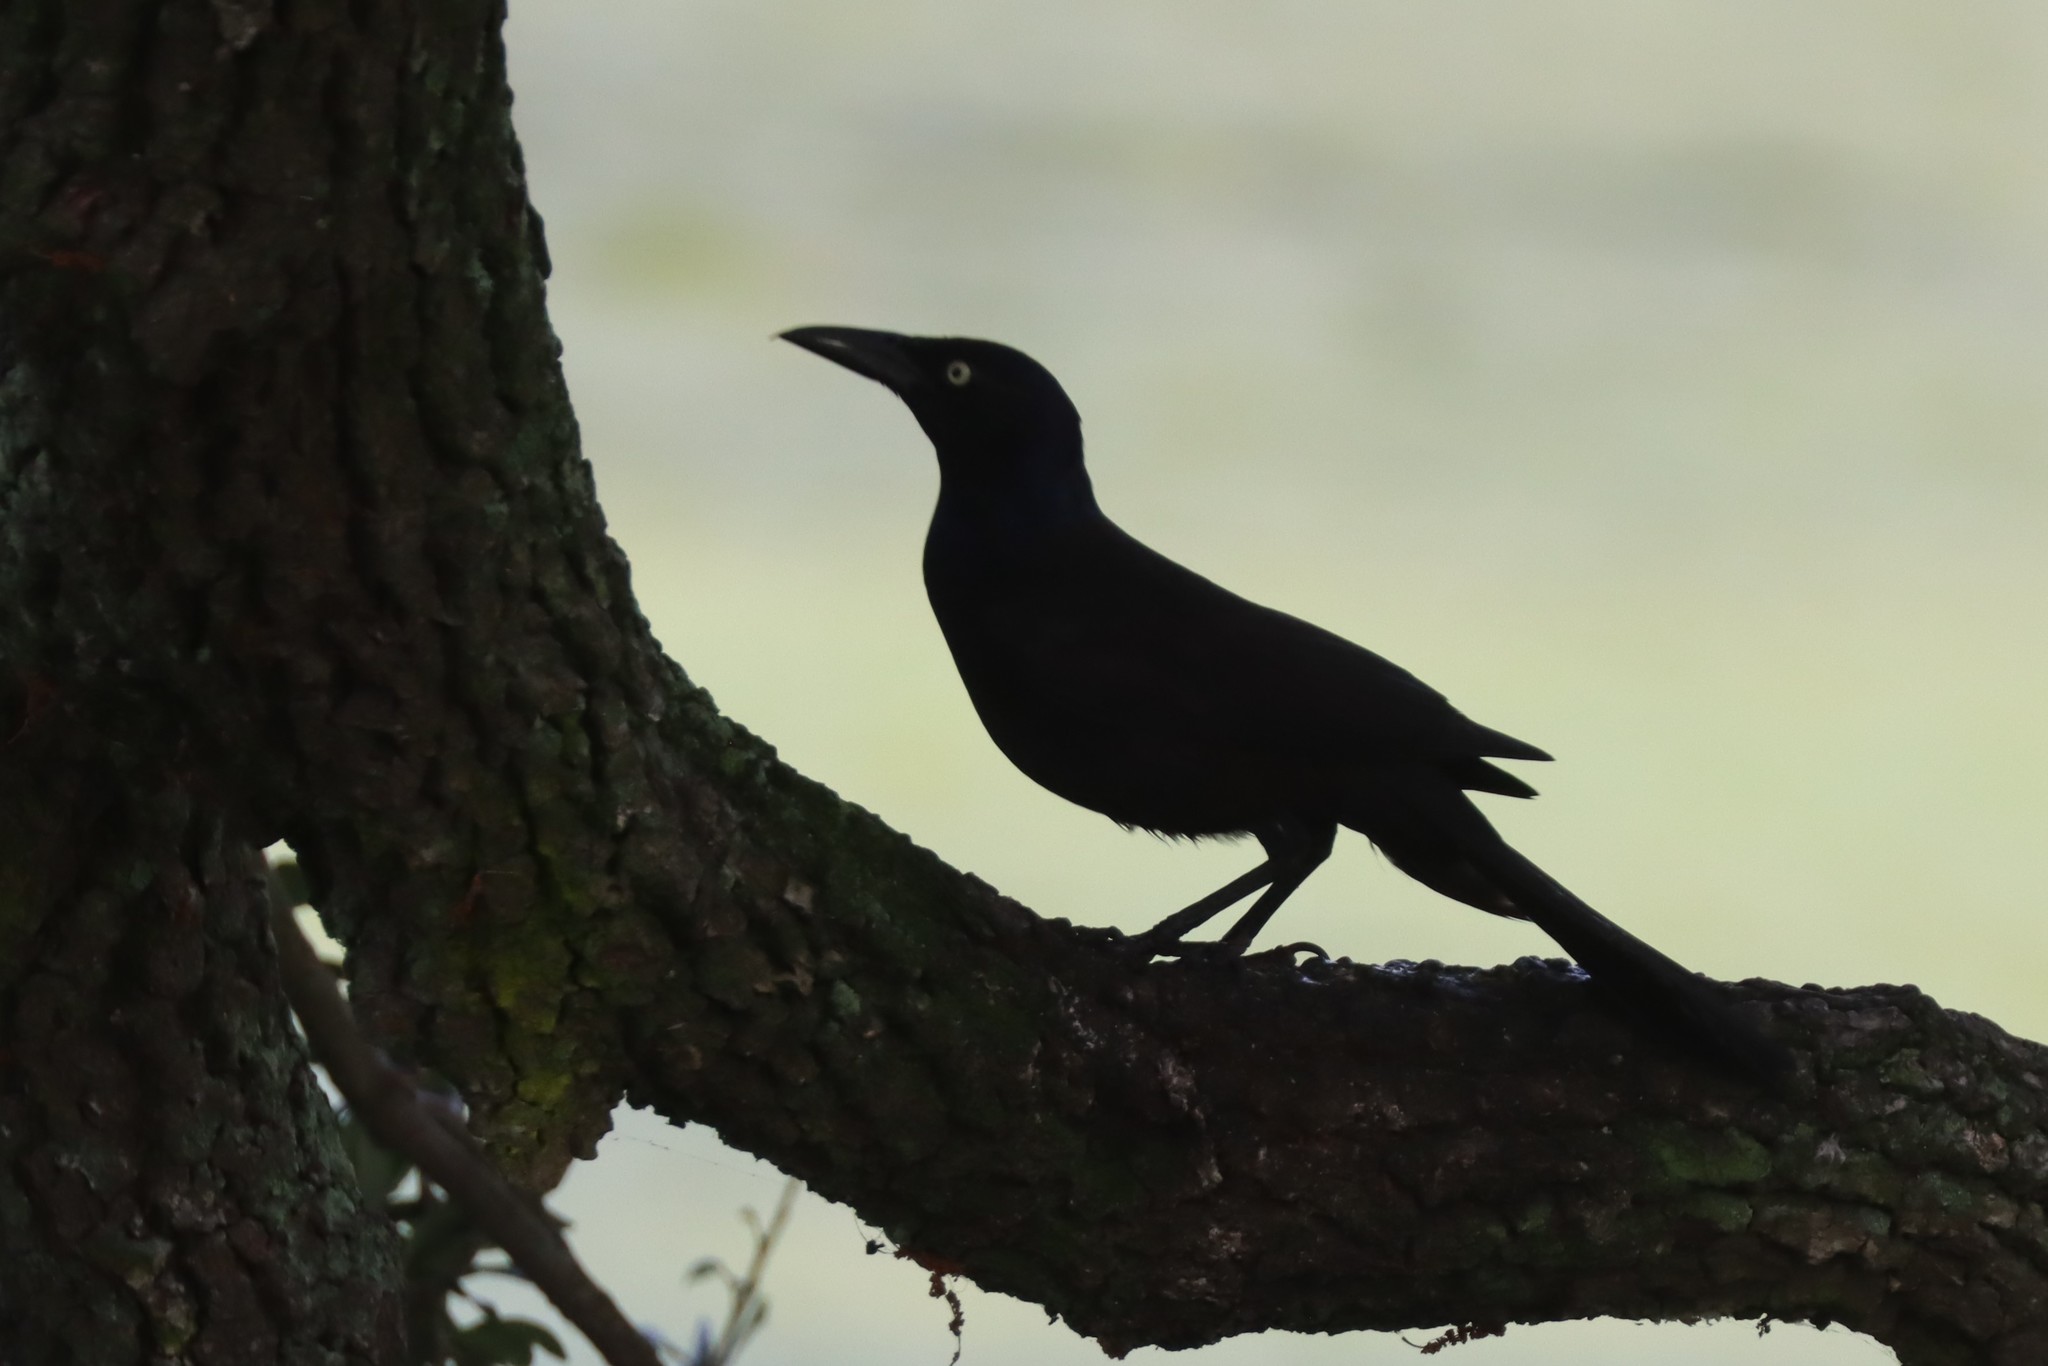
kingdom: Animalia
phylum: Chordata
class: Aves
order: Passeriformes
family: Icteridae
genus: Quiscalus
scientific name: Quiscalus quiscula
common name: Common grackle
